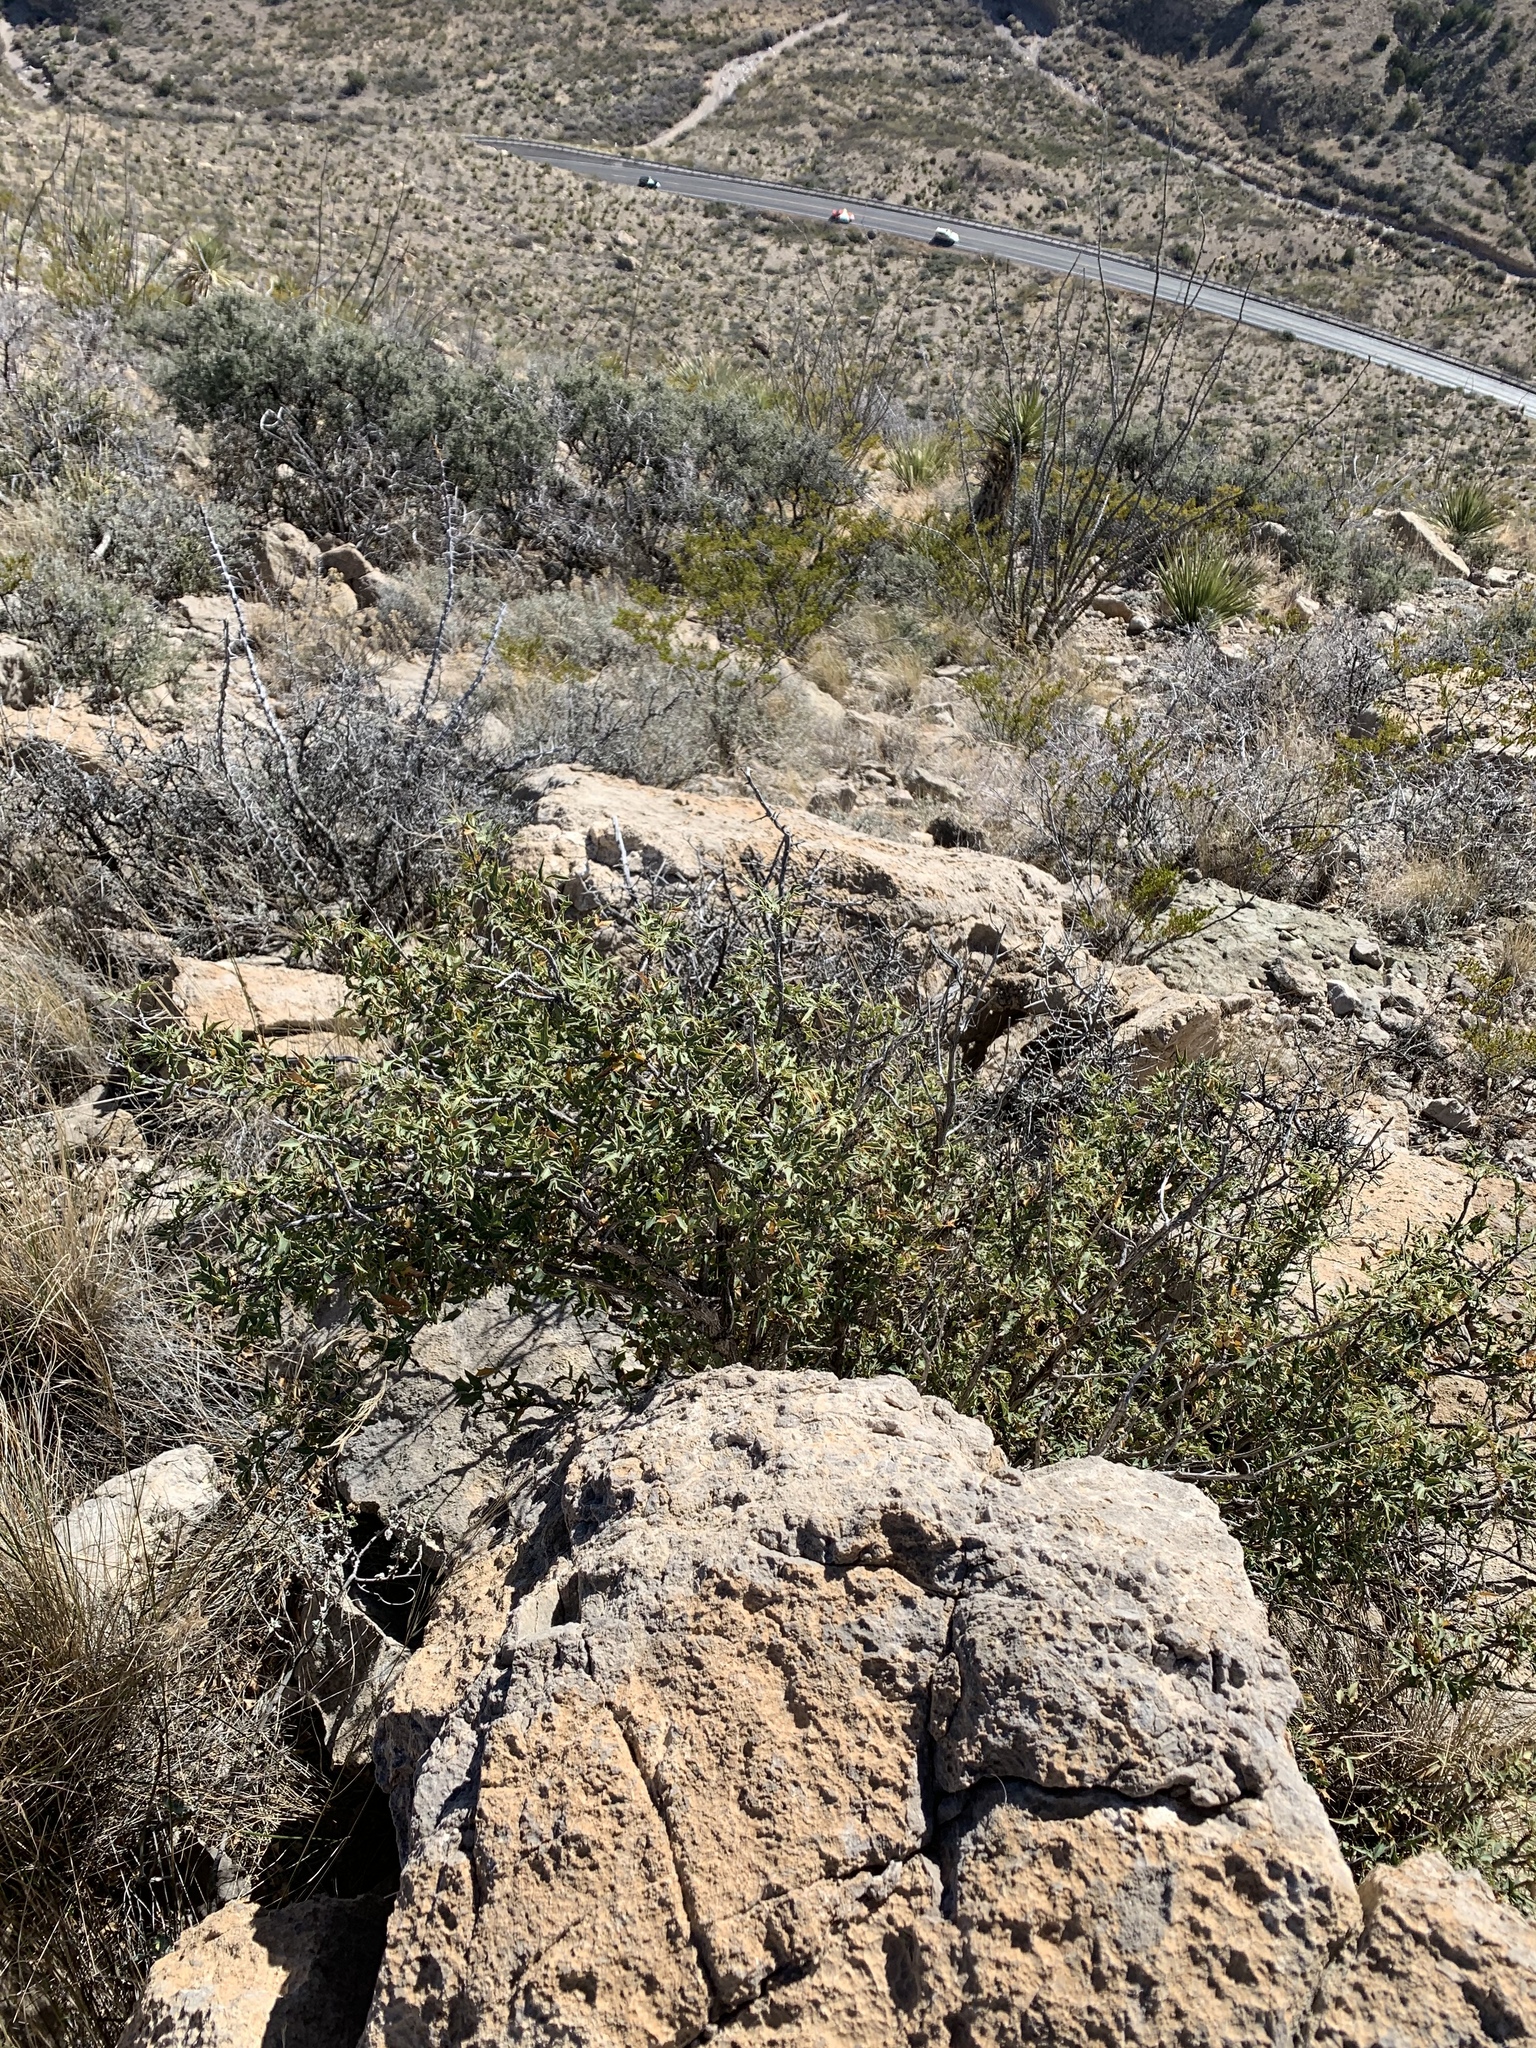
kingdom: Plantae
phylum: Tracheophyta
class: Magnoliopsida
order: Ranunculales
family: Berberidaceae
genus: Alloberberis
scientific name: Alloberberis haematocarpa
